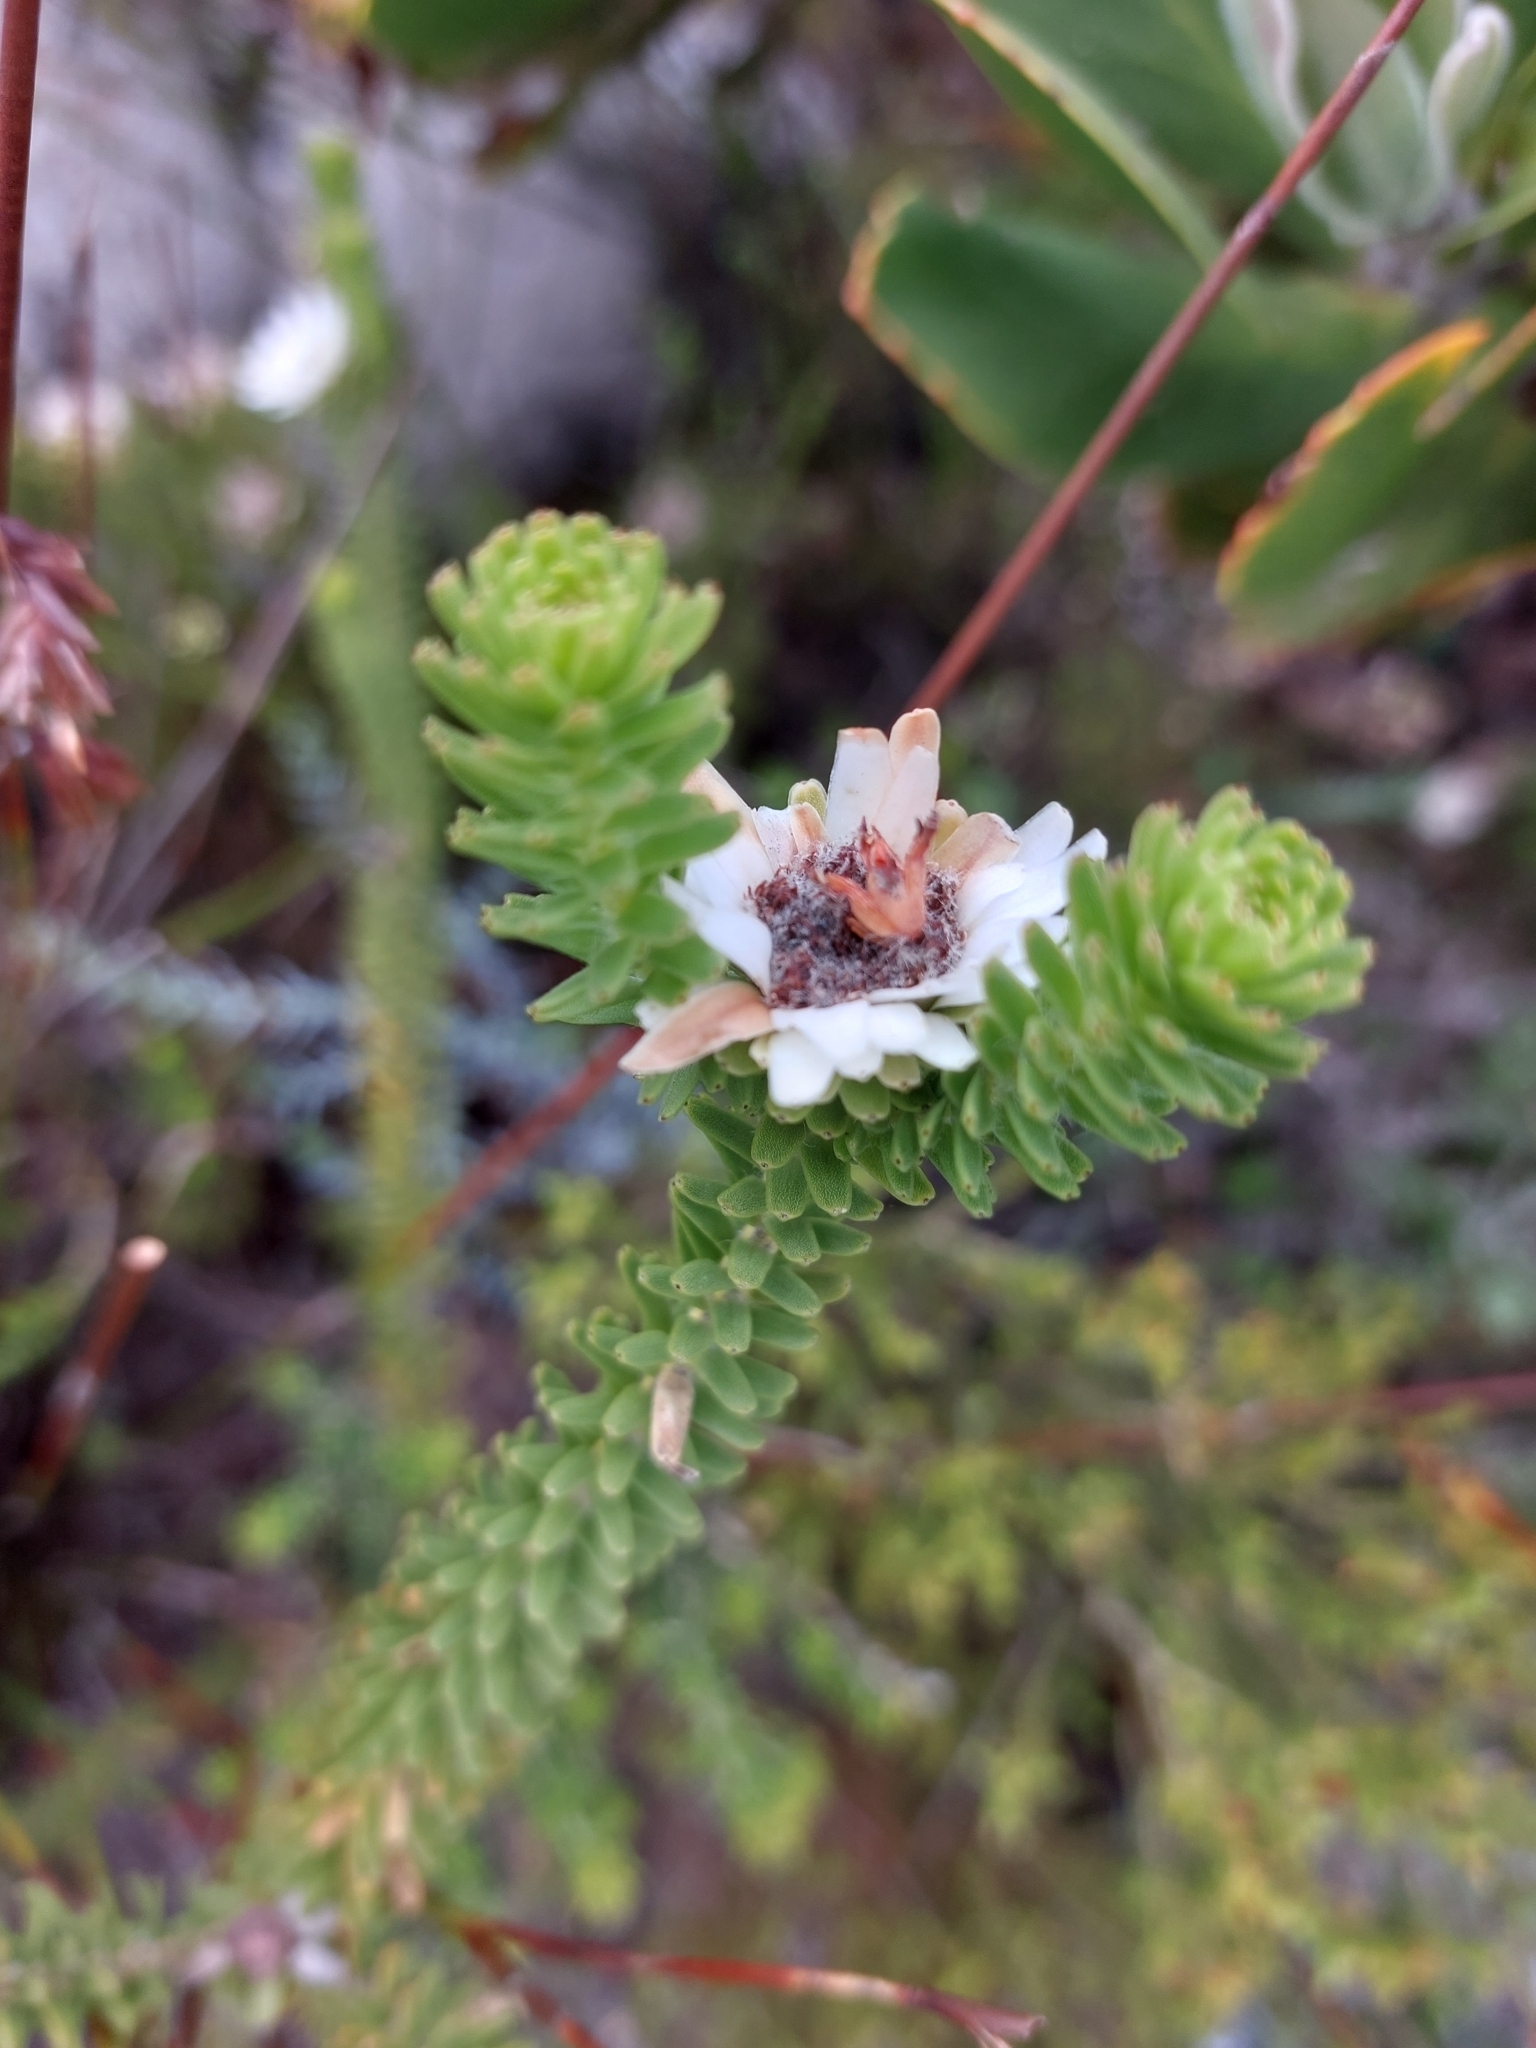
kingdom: Plantae
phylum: Tracheophyta
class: Magnoliopsida
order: Bruniales
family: Bruniaceae
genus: Staavia
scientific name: Staavia dodii
